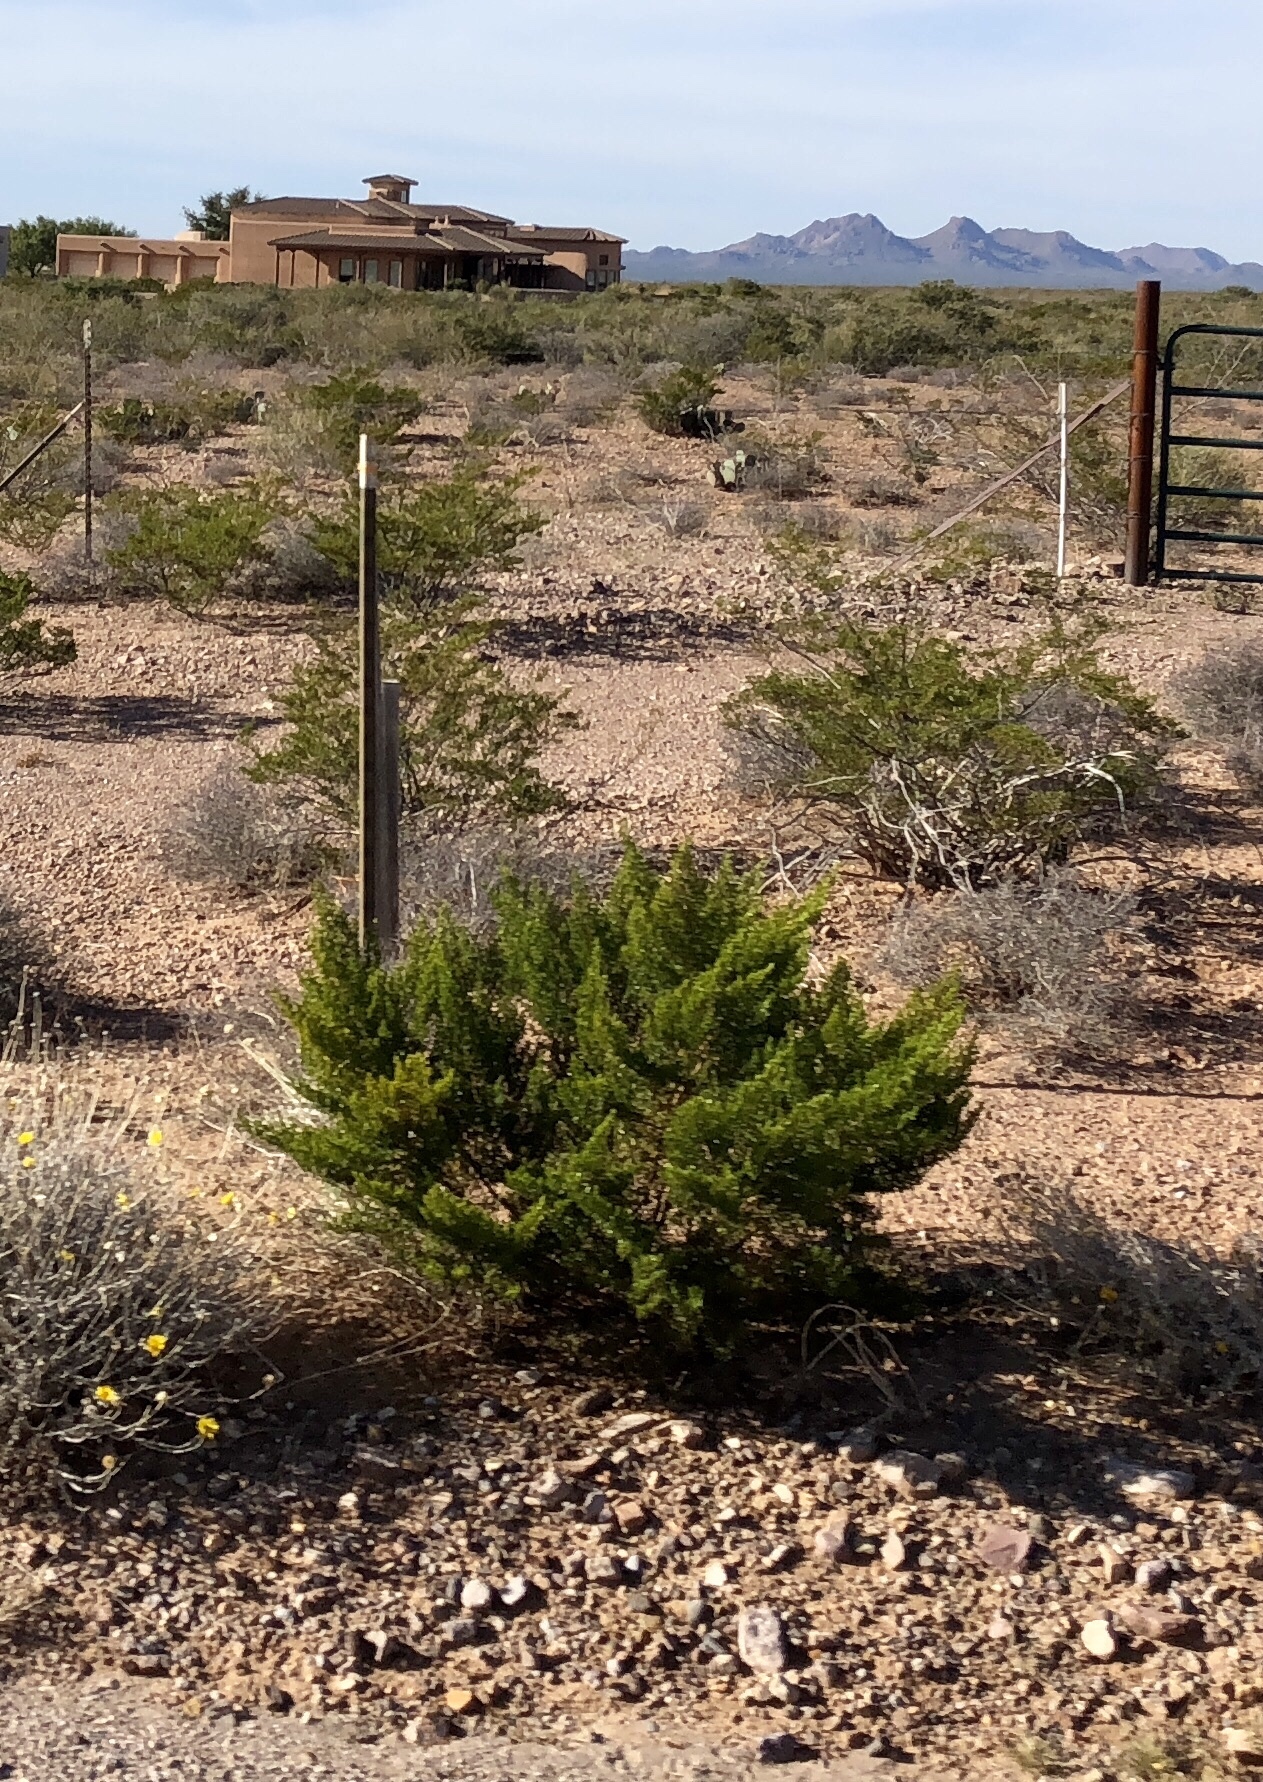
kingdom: Plantae
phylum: Tracheophyta
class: Magnoliopsida
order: Zygophyllales
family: Zygophyllaceae
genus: Larrea
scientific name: Larrea tridentata
